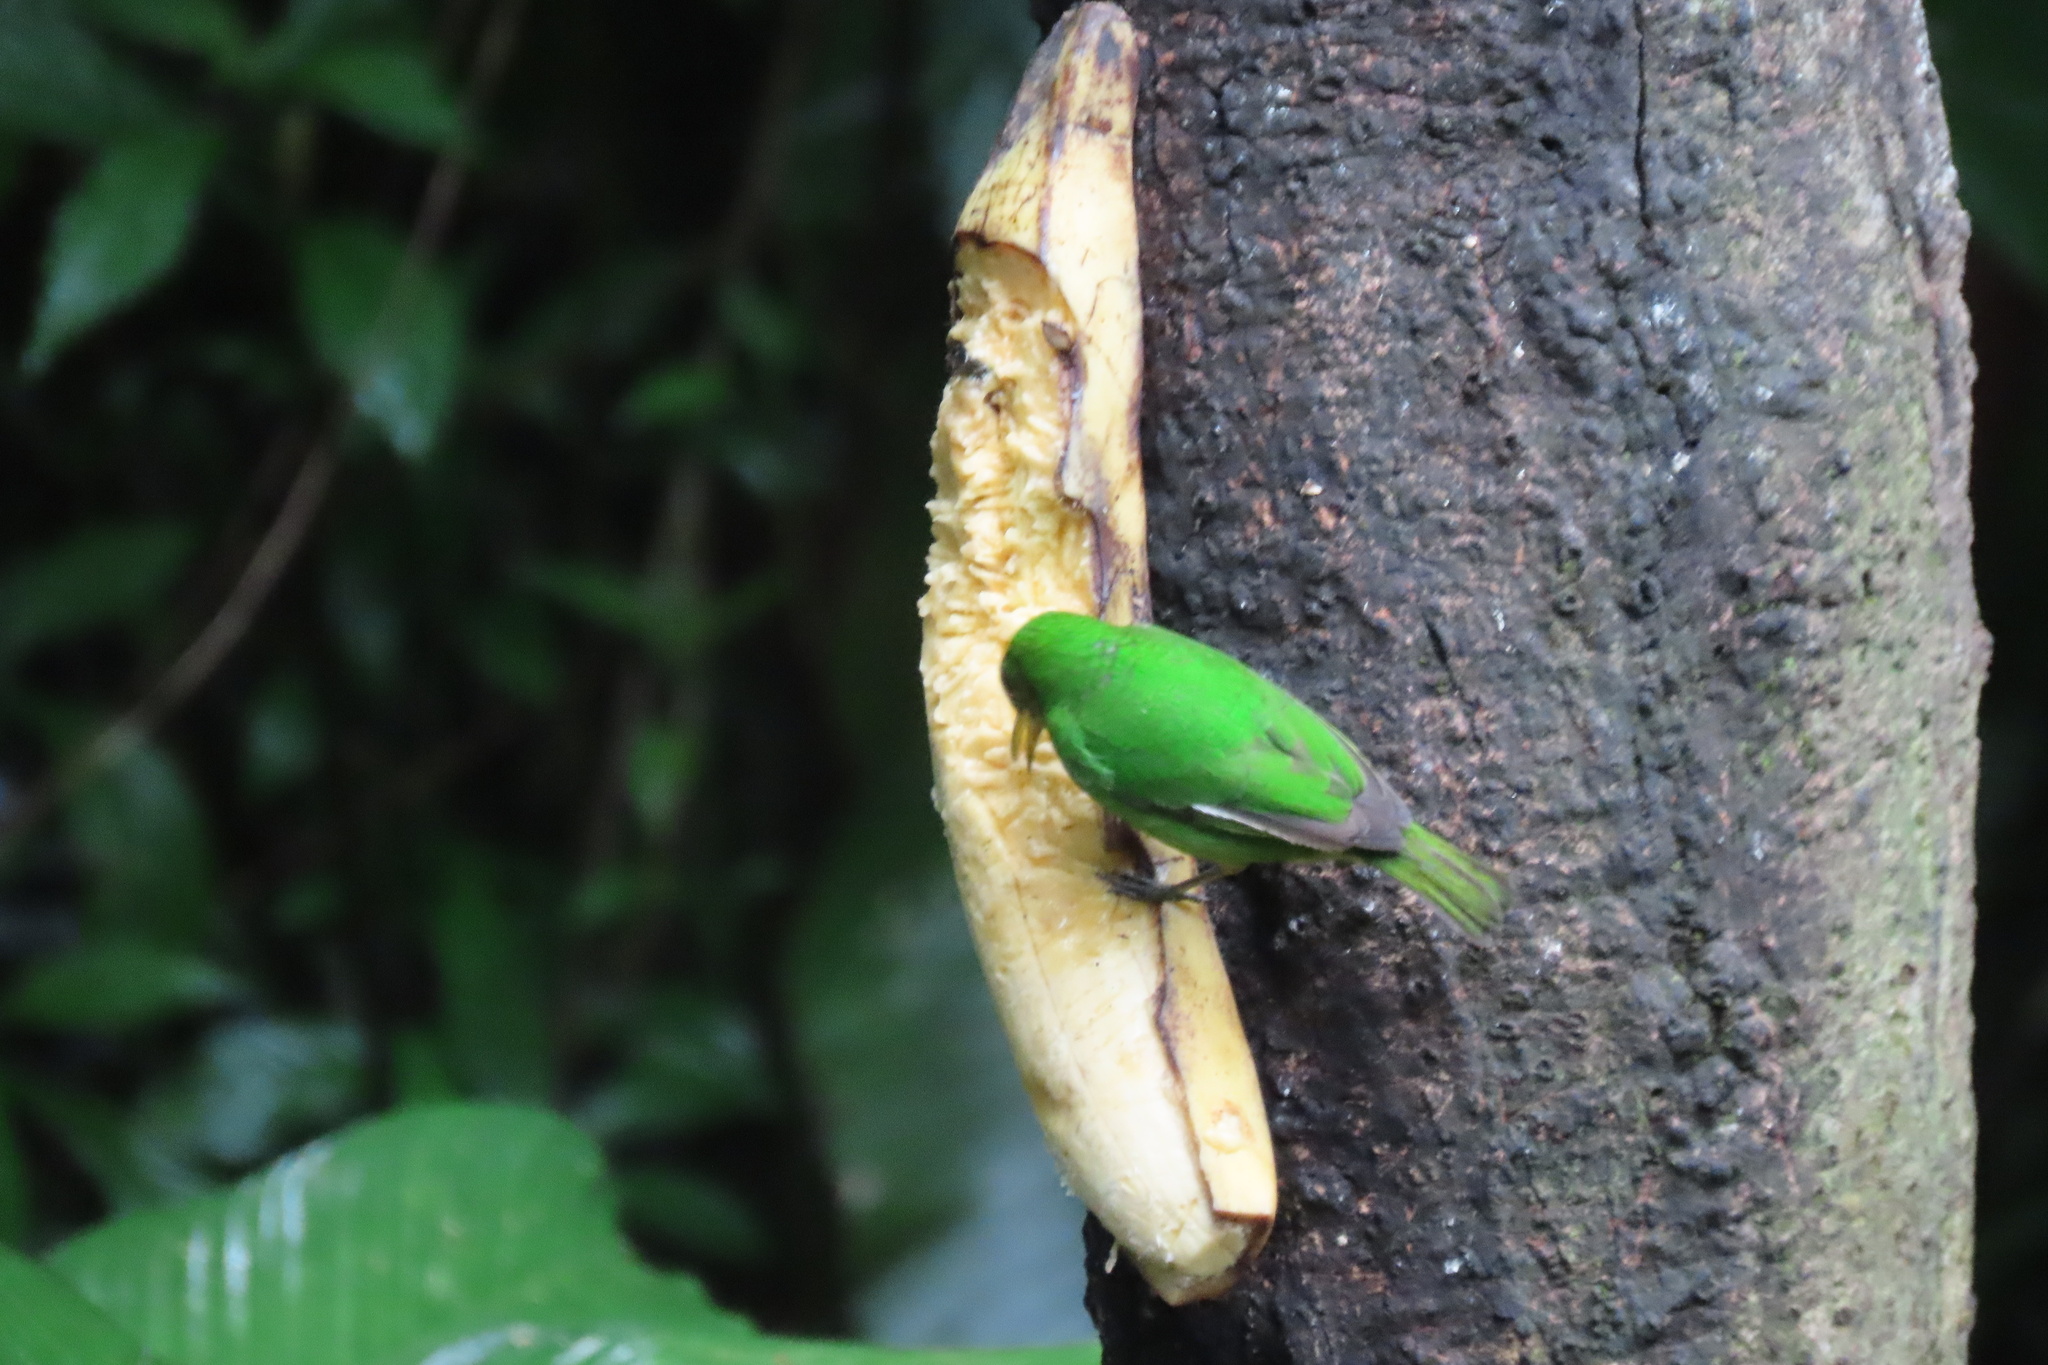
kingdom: Animalia
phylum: Chordata
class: Aves
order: Passeriformes
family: Thraupidae
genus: Chlorophanes
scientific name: Chlorophanes spiza
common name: Green honeycreeper
